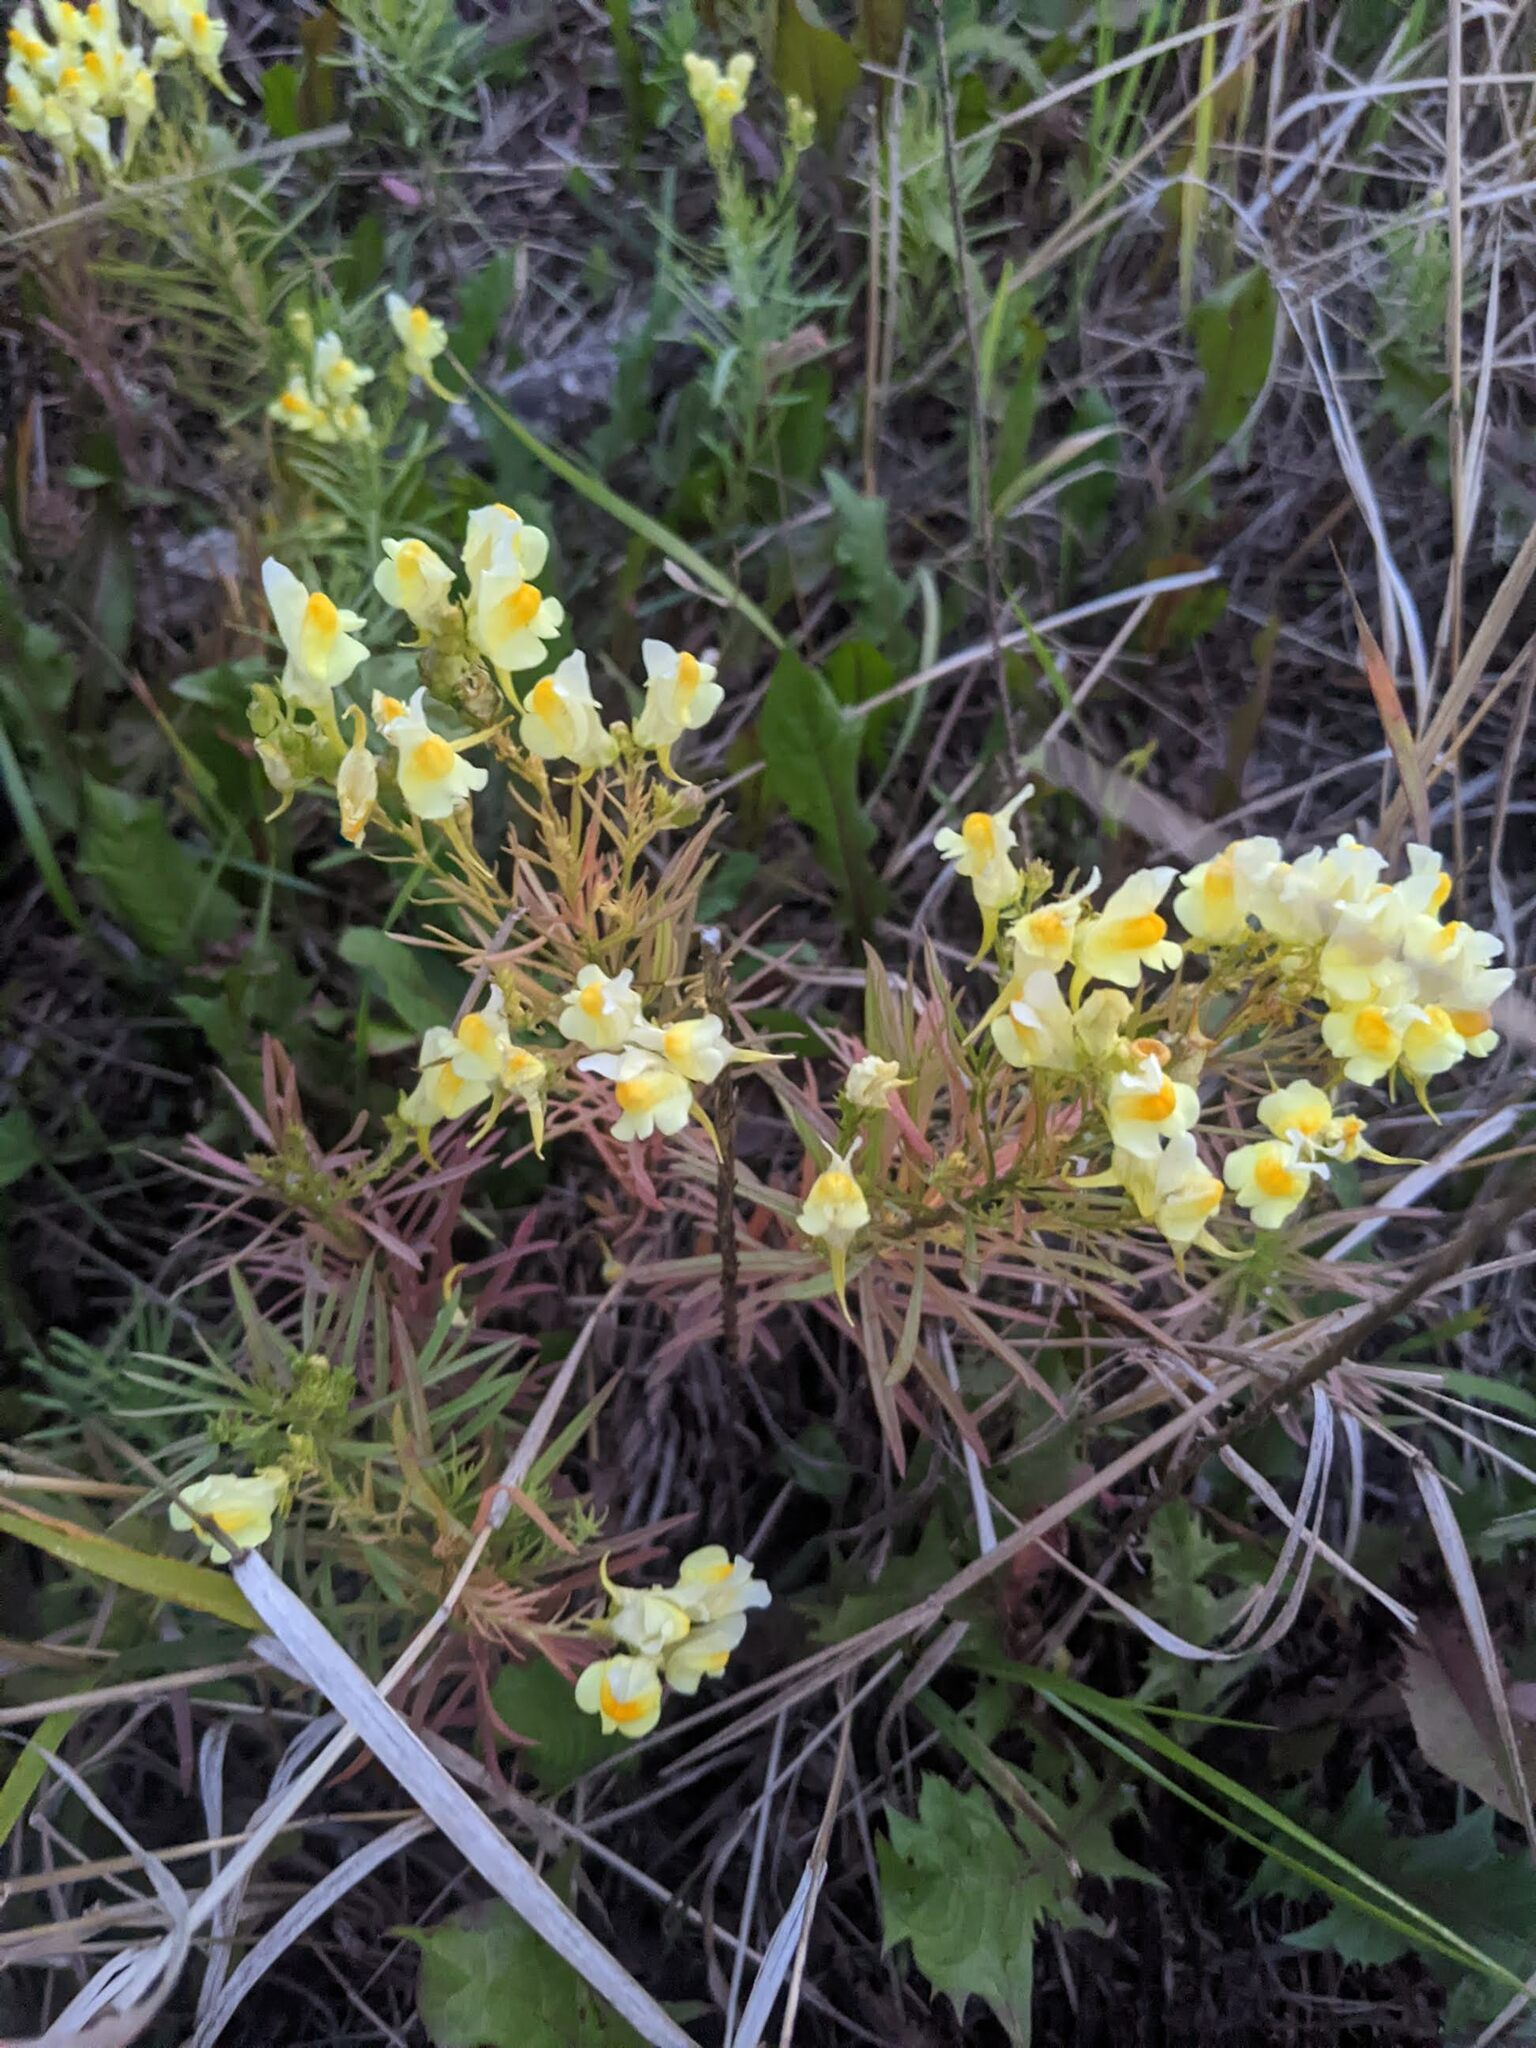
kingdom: Plantae
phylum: Tracheophyta
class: Magnoliopsida
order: Lamiales
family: Plantaginaceae
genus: Linaria
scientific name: Linaria vulgaris
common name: Butter and eggs
